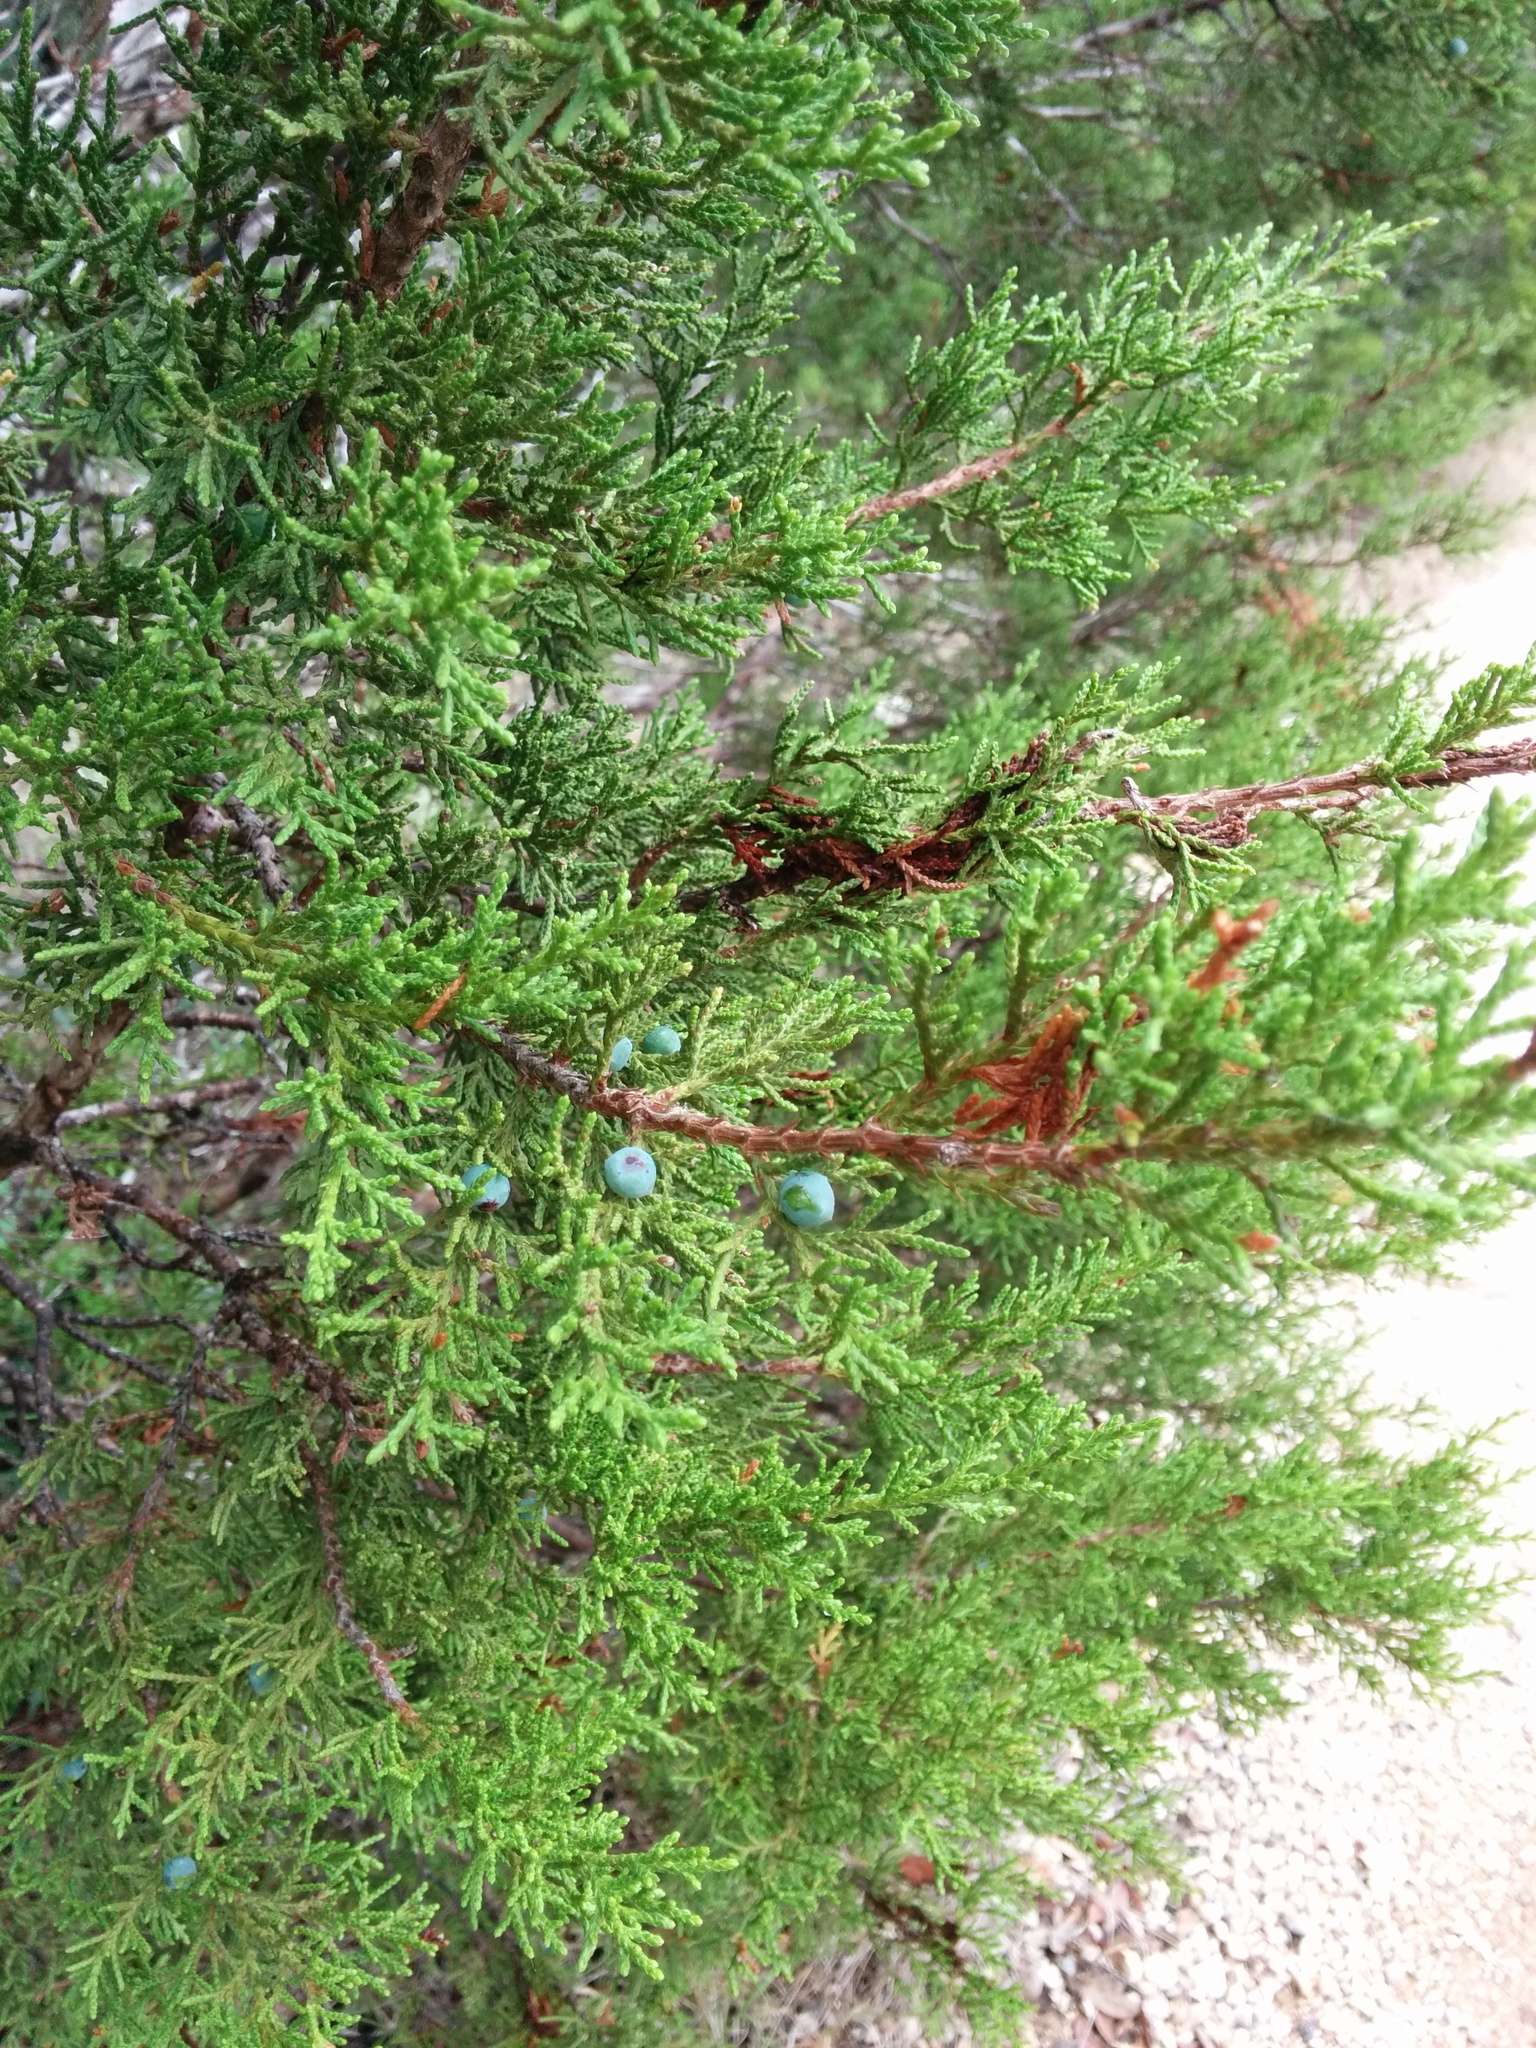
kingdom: Plantae
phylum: Tracheophyta
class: Pinopsida
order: Pinales
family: Cupressaceae
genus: Juniperus
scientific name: Juniperus ashei
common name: Mexican juniper
